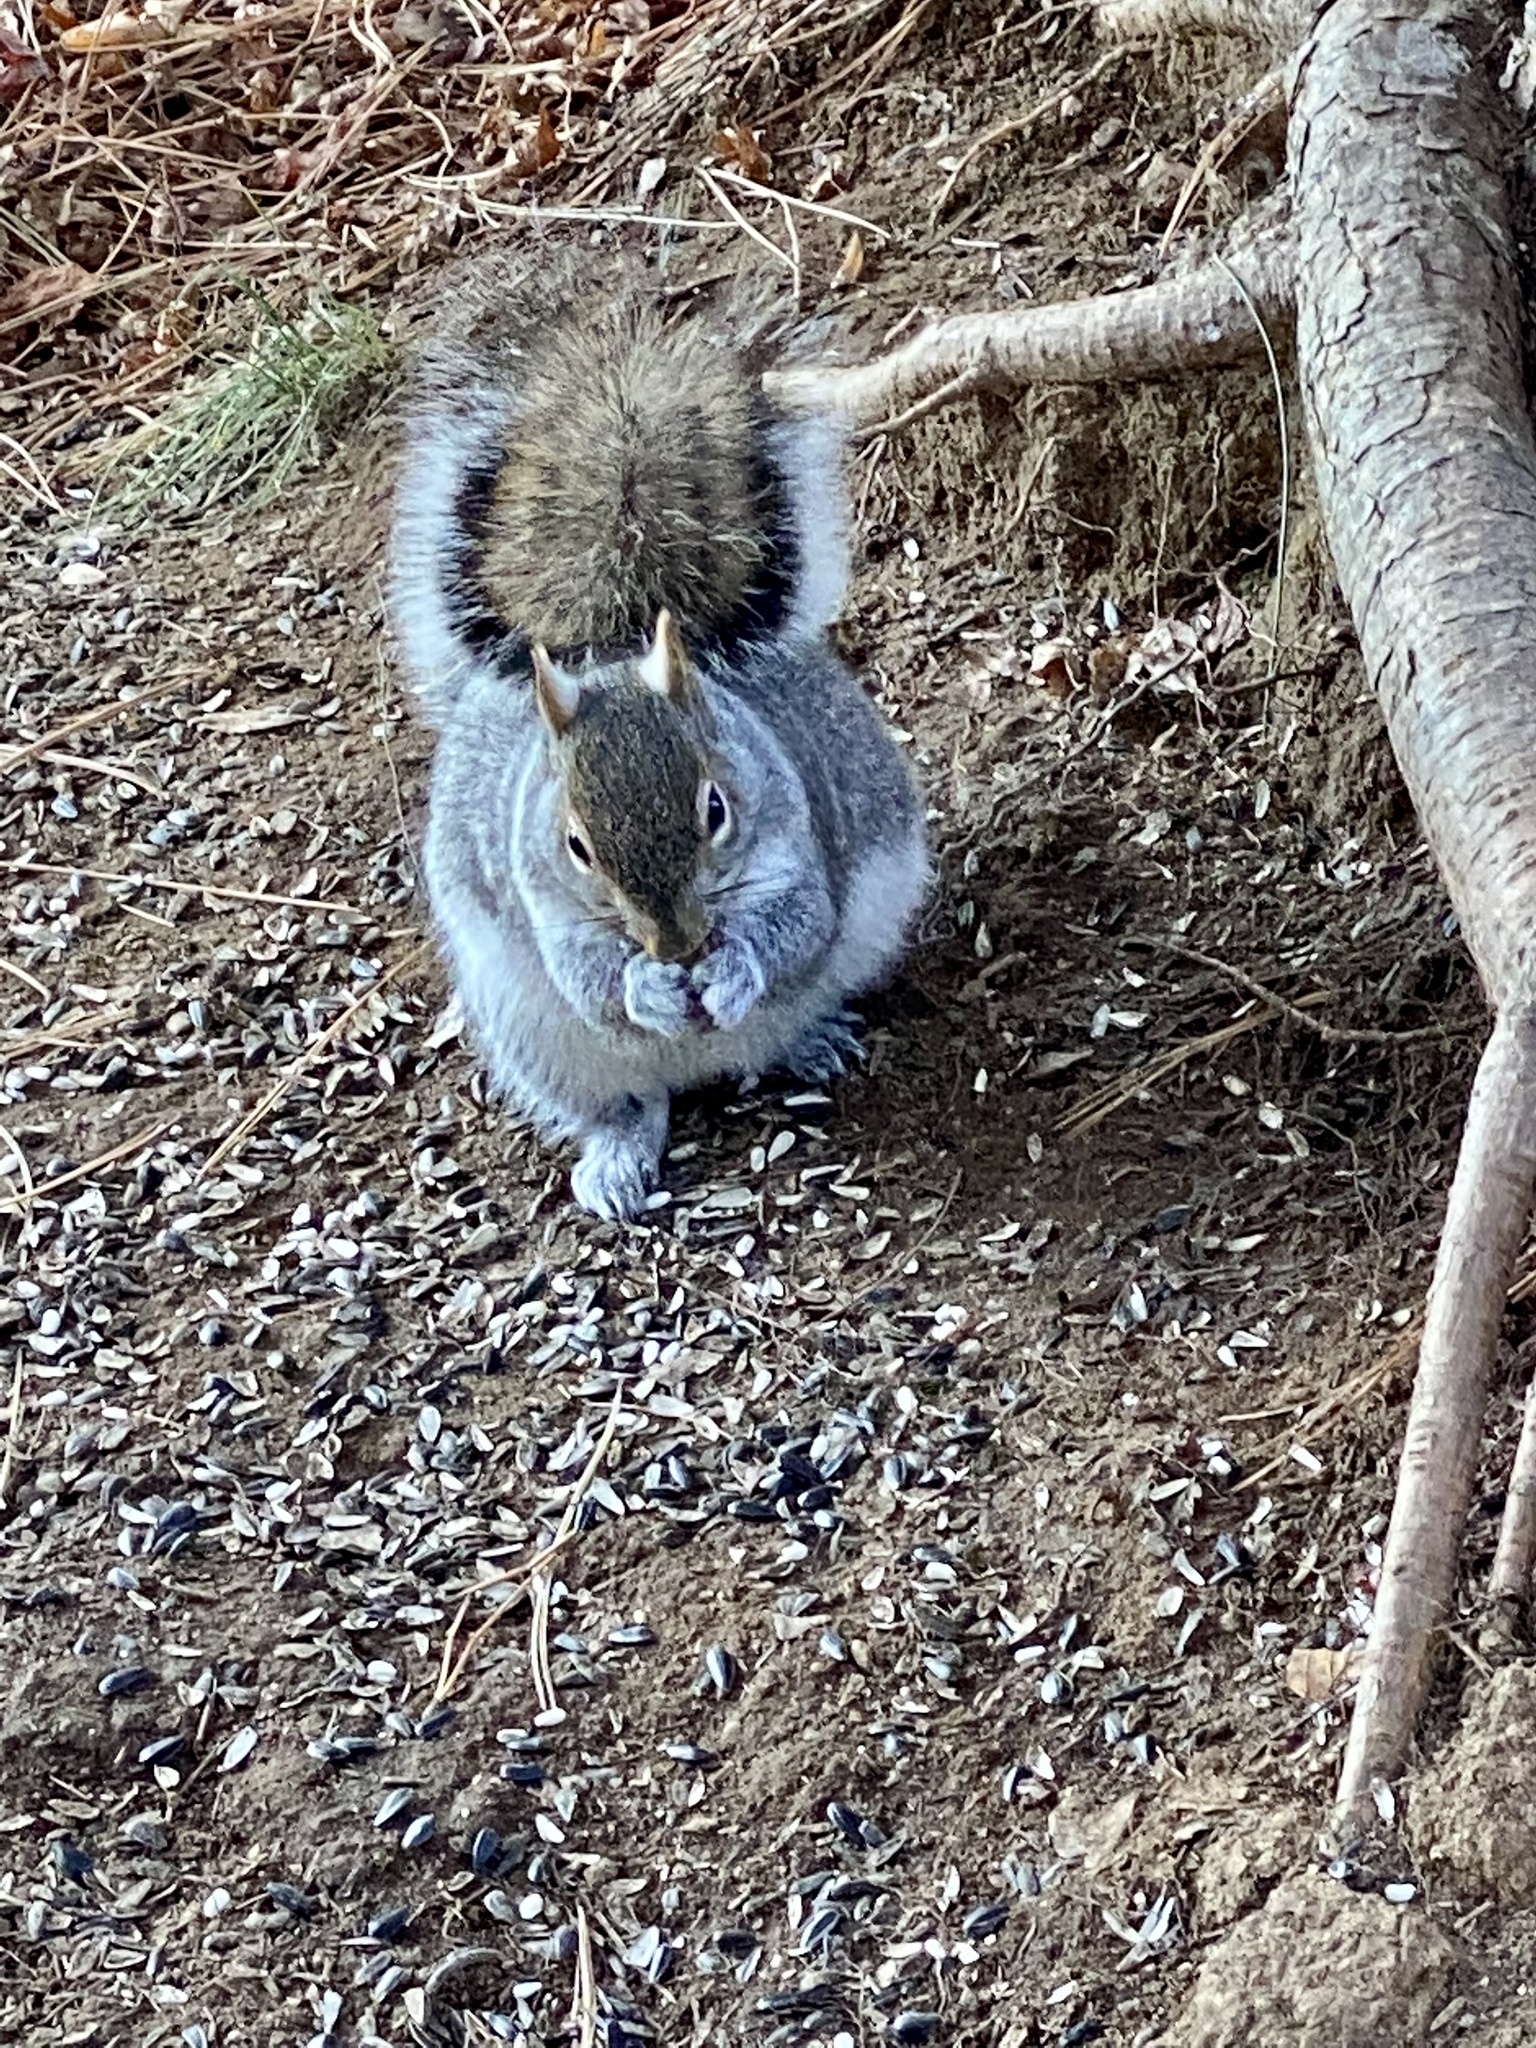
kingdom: Animalia
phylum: Chordata
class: Mammalia
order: Rodentia
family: Sciuridae
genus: Sciurus
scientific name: Sciurus carolinensis
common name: Eastern gray squirrel
